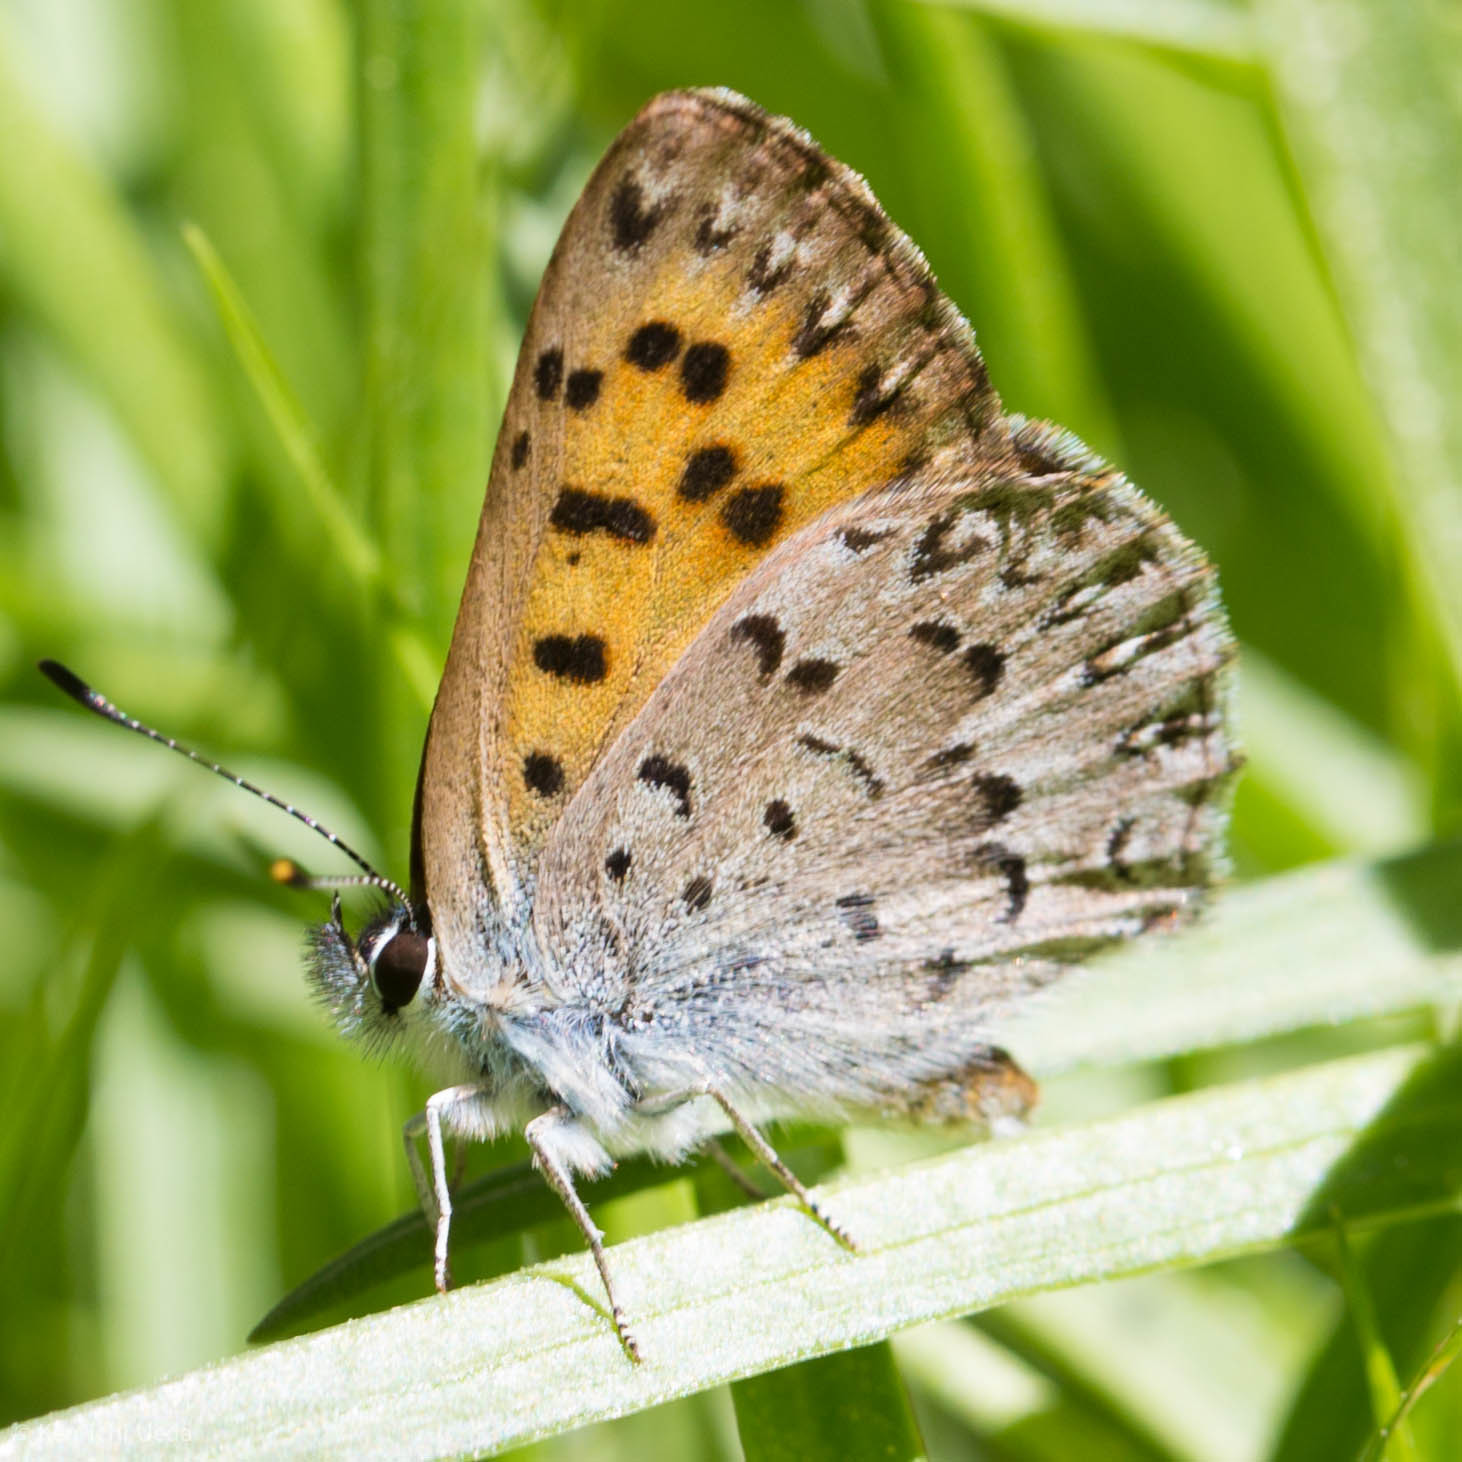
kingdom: Animalia
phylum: Arthropoda
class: Insecta
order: Lepidoptera
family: Lycaenidae
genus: Tharsalea
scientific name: Tharsalea mariposa
